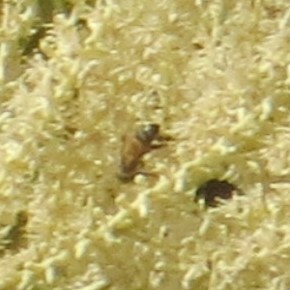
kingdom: Animalia
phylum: Arthropoda
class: Insecta
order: Hymenoptera
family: Apidae
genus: Apis
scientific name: Apis mellifera
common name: Honey bee
